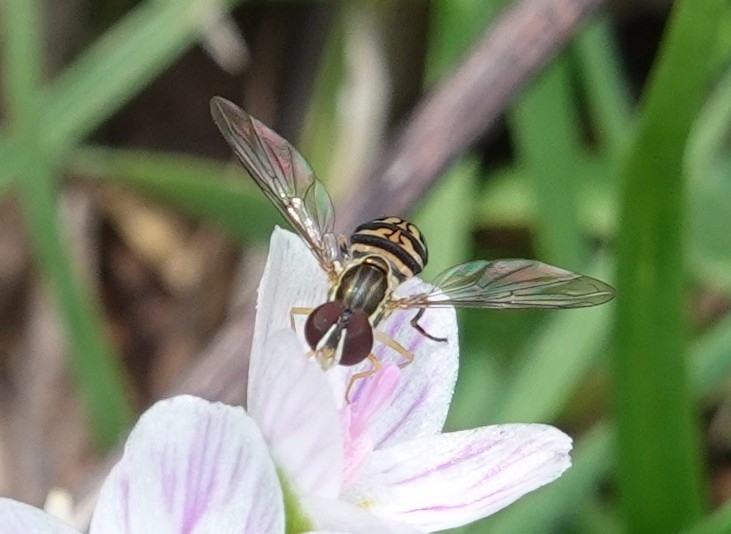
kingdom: Animalia
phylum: Arthropoda
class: Insecta
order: Diptera
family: Syrphidae
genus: Toxomerus
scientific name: Toxomerus geminatus
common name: Eastern calligrapher
